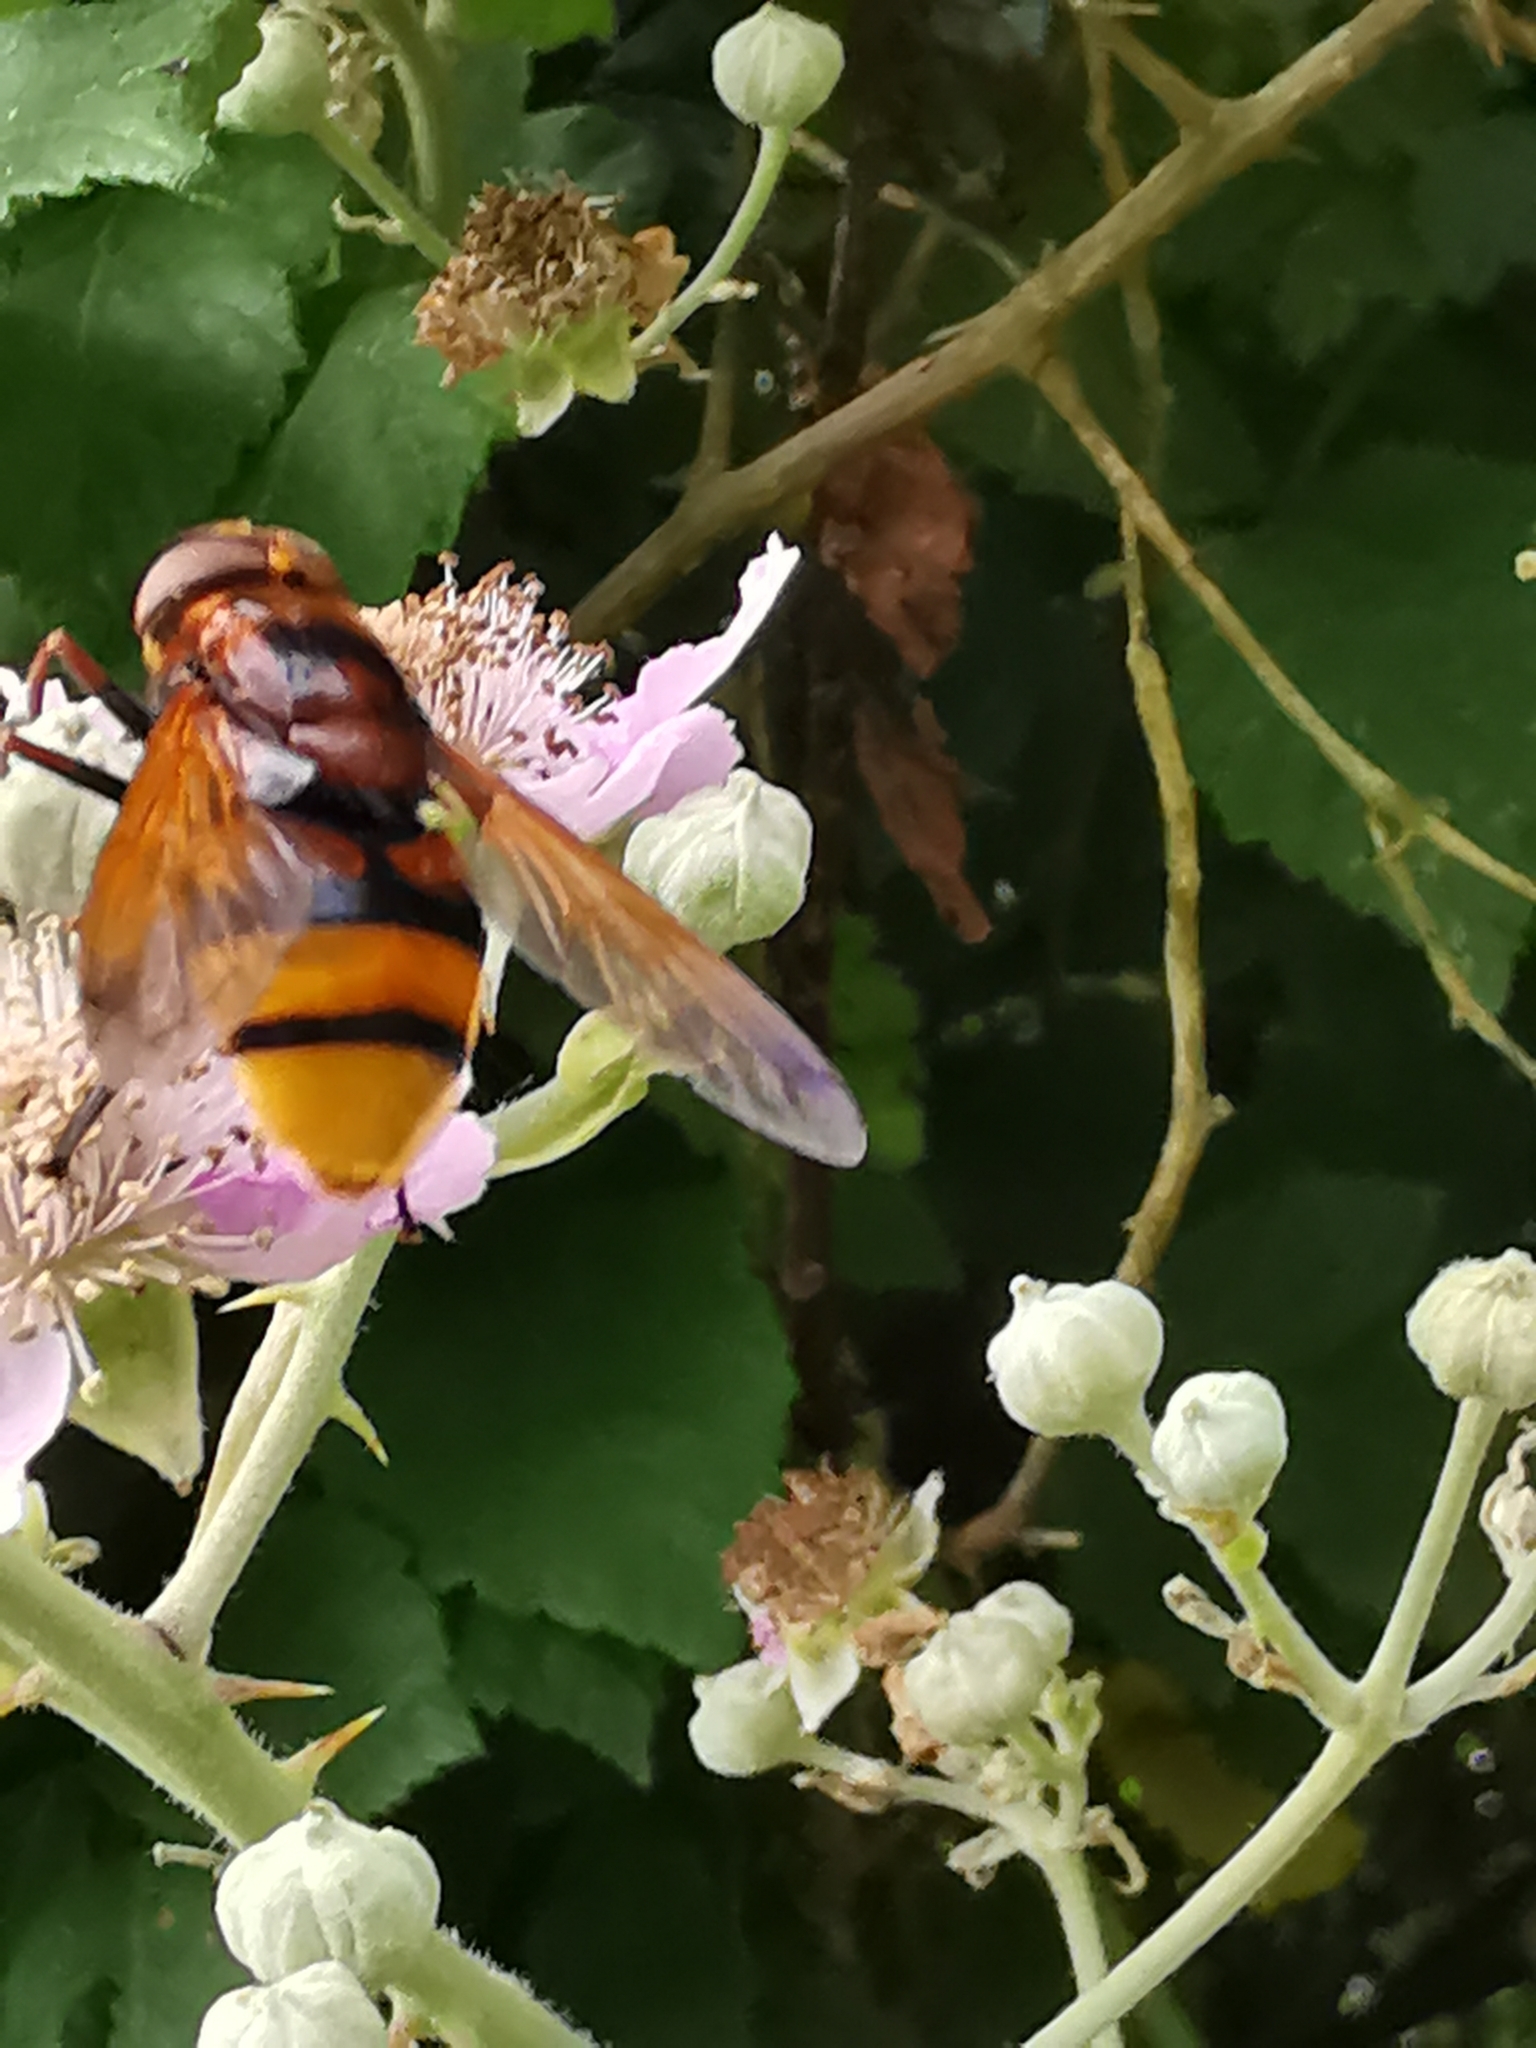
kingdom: Animalia
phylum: Arthropoda
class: Insecta
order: Diptera
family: Syrphidae
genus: Volucella
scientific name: Volucella zonaria
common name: Hornet hoverfly
